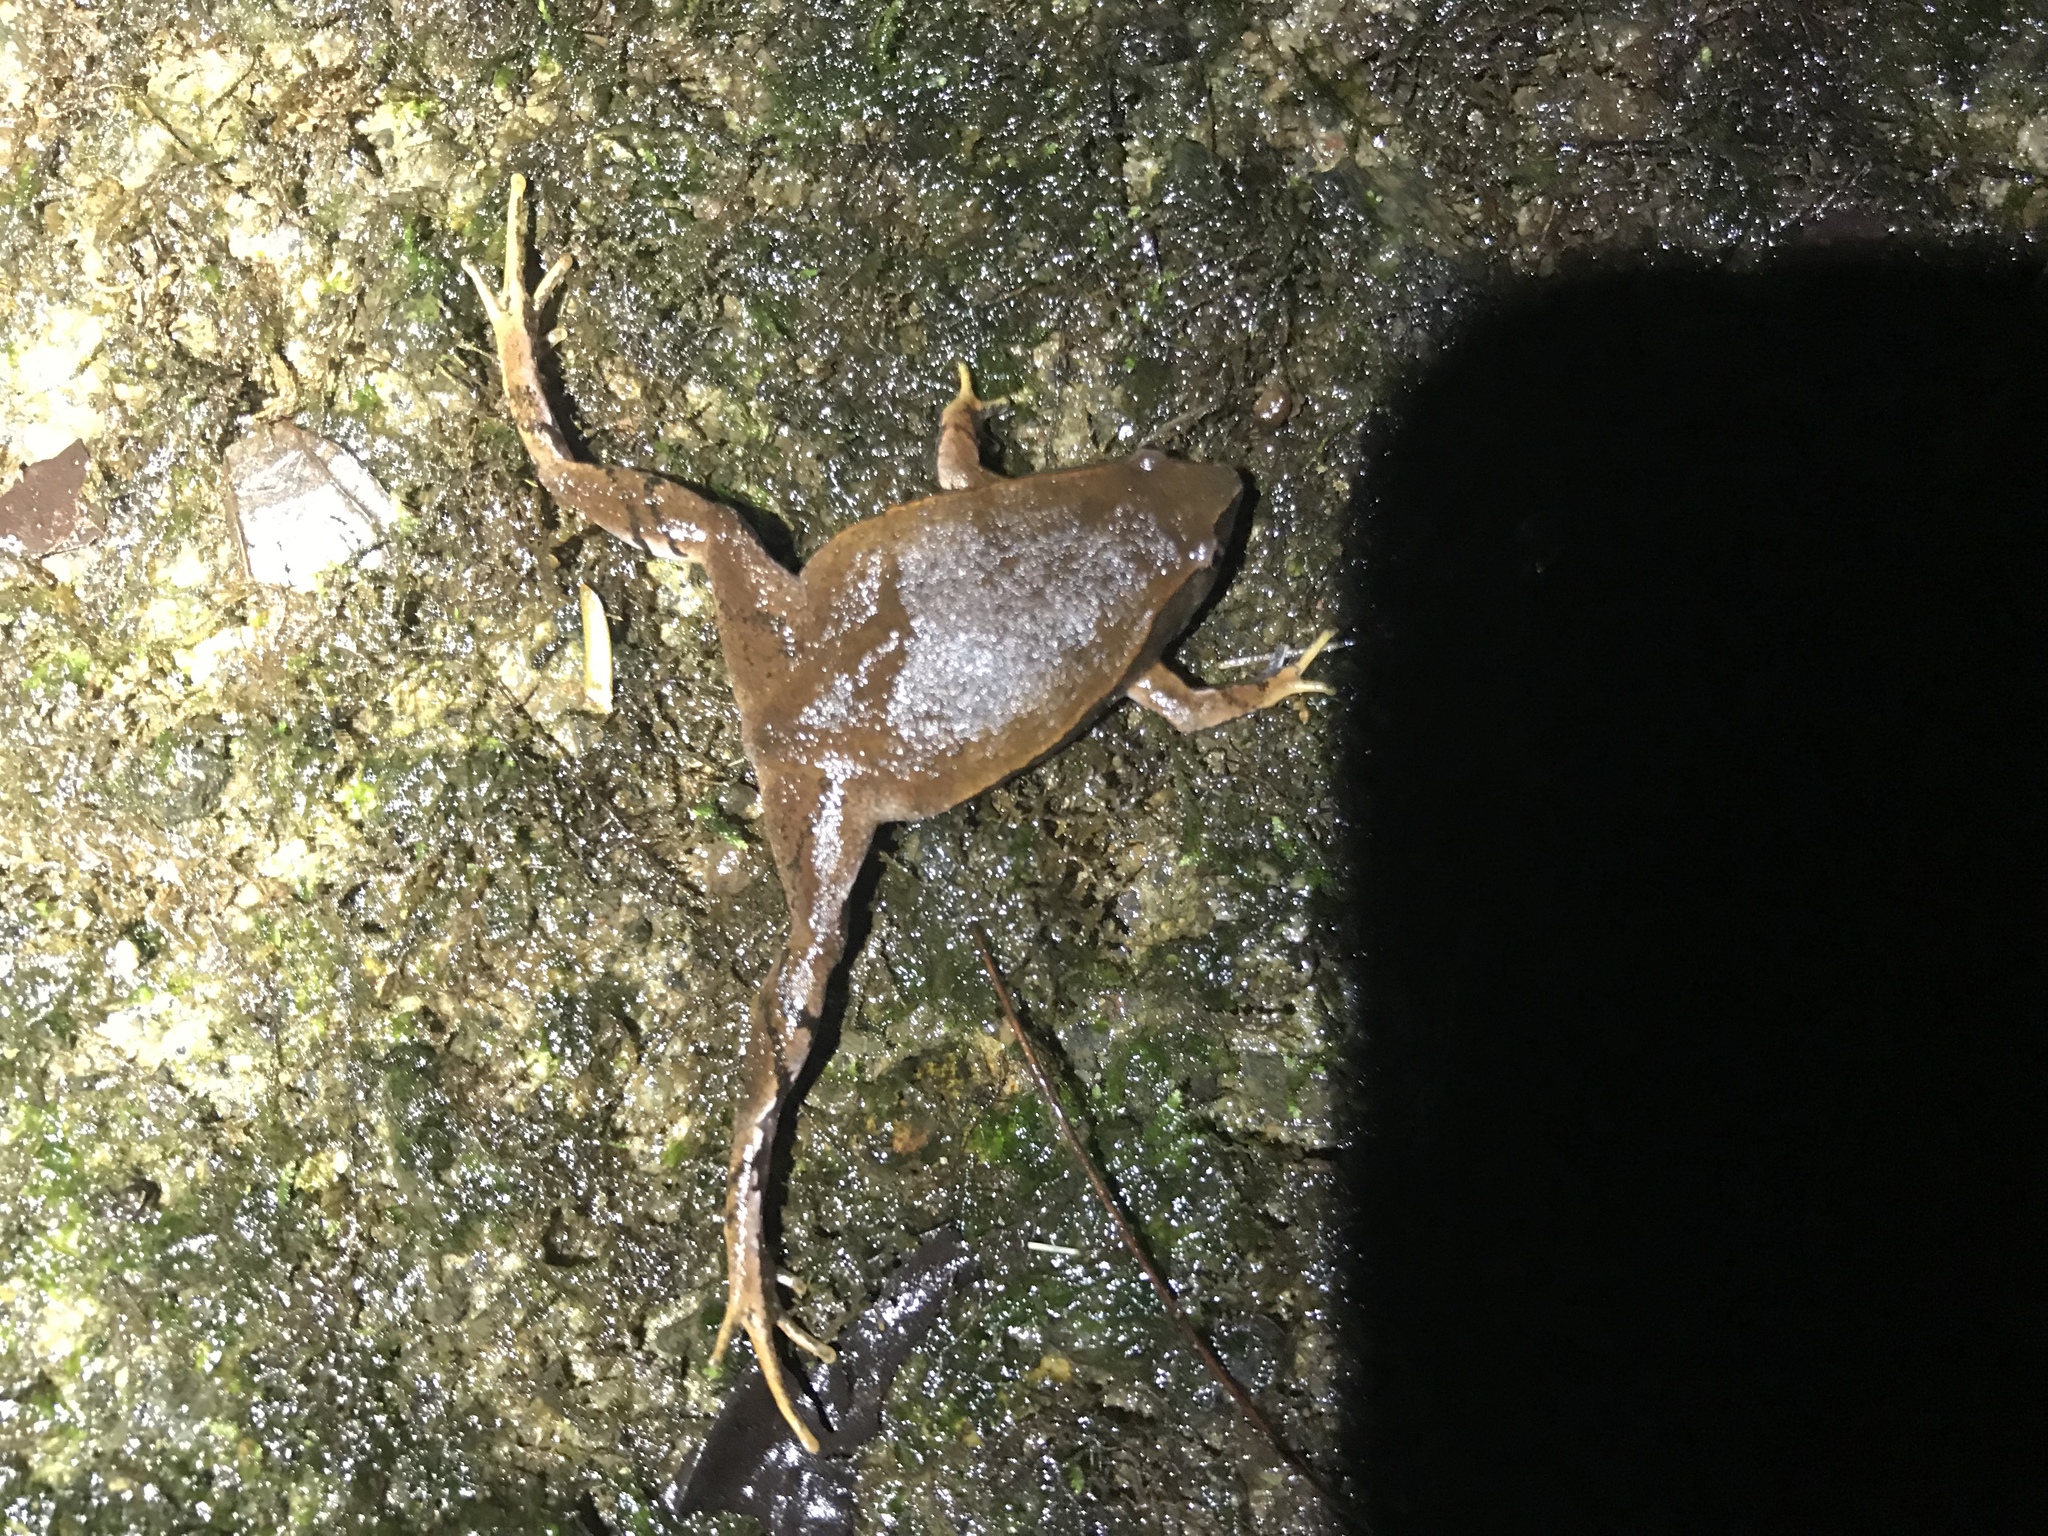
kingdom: Animalia
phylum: Chordata
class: Amphibia
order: Anura
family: Microhylidae
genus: Hypopachus
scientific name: Hypopachus pictiventris
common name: Nicaragua narrowmouth toad
